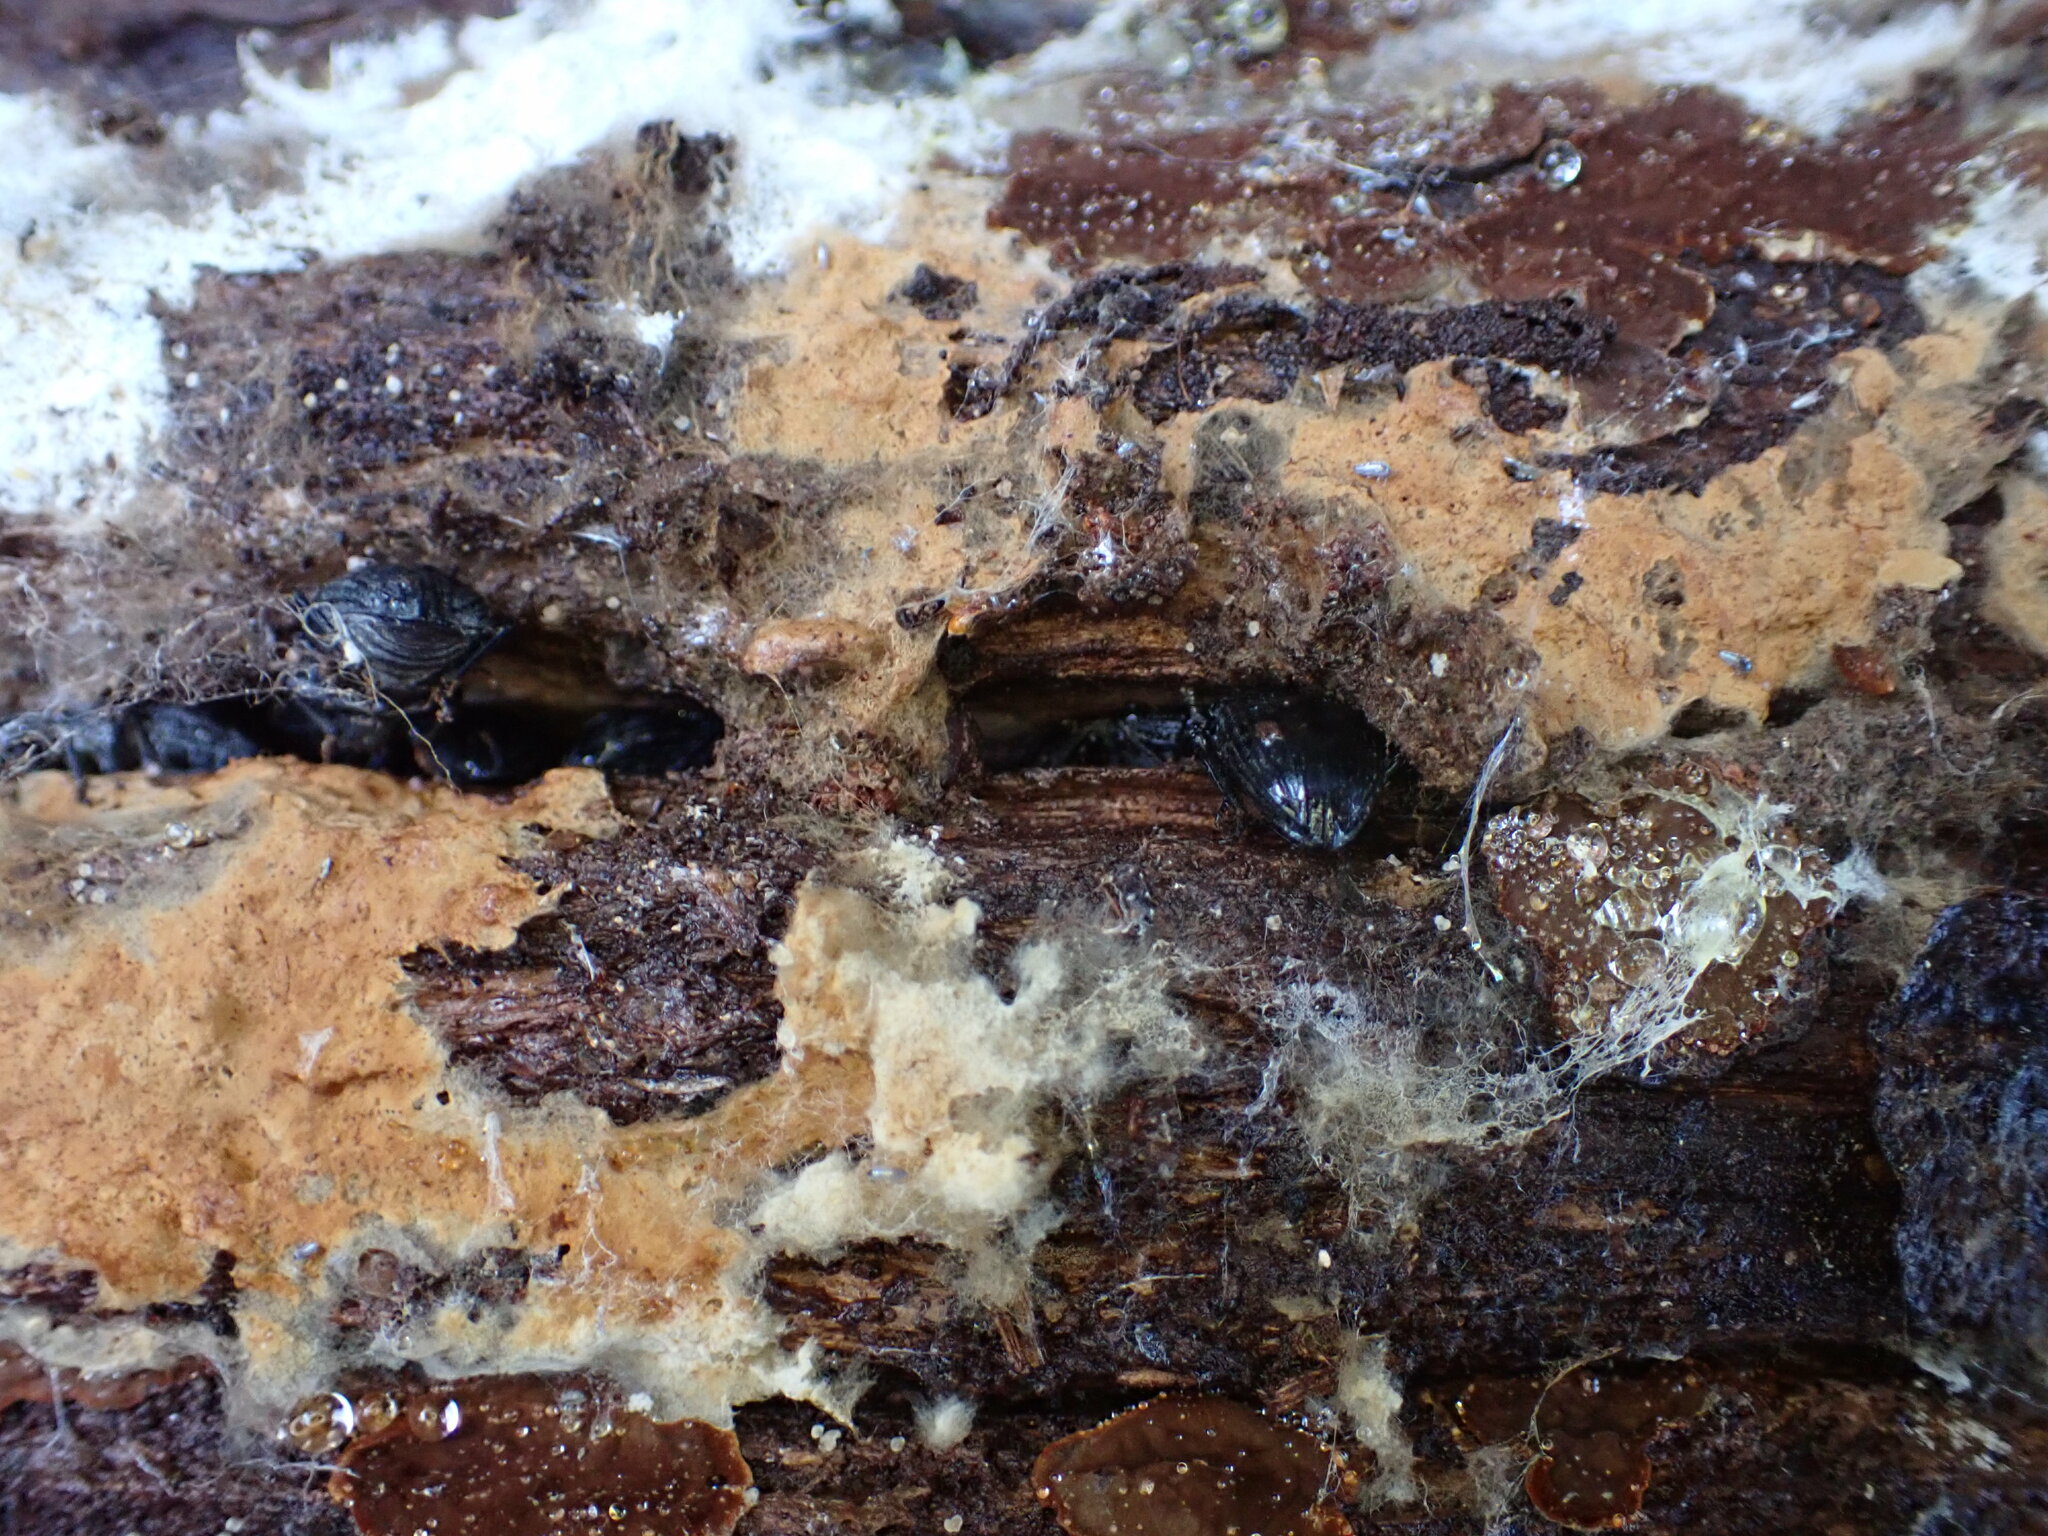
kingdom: Animalia
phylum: Arthropoda
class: Insecta
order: Coleoptera
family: Tenebrionidae
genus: Dendarus
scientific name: Dendarus coarcticollis
